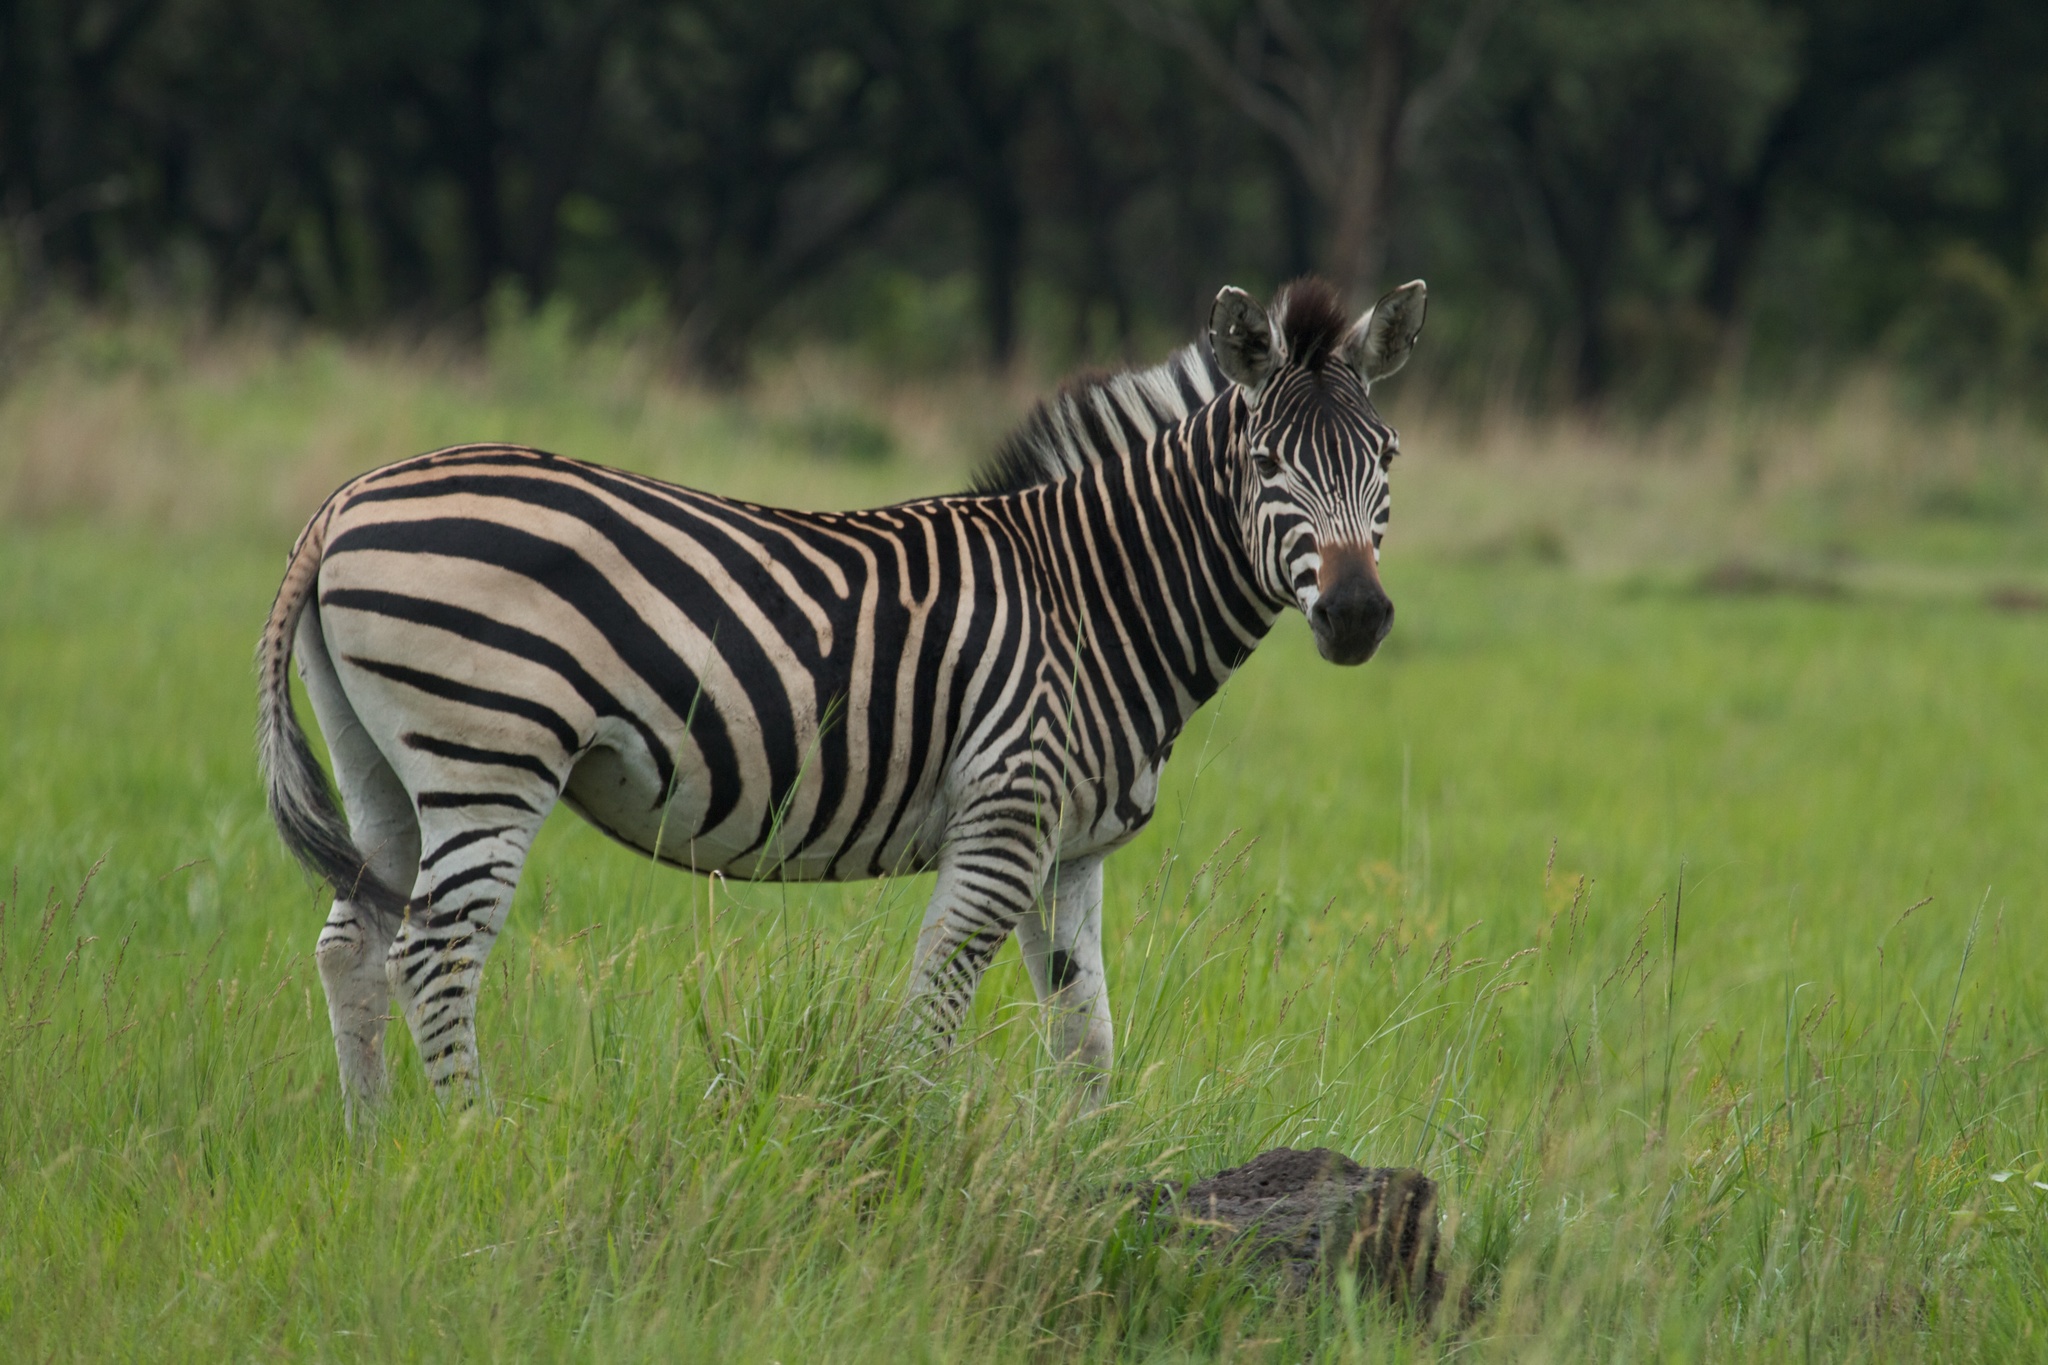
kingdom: Animalia
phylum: Chordata
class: Mammalia
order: Perissodactyla
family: Equidae
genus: Equus
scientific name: Equus quagga
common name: Plains zebra
